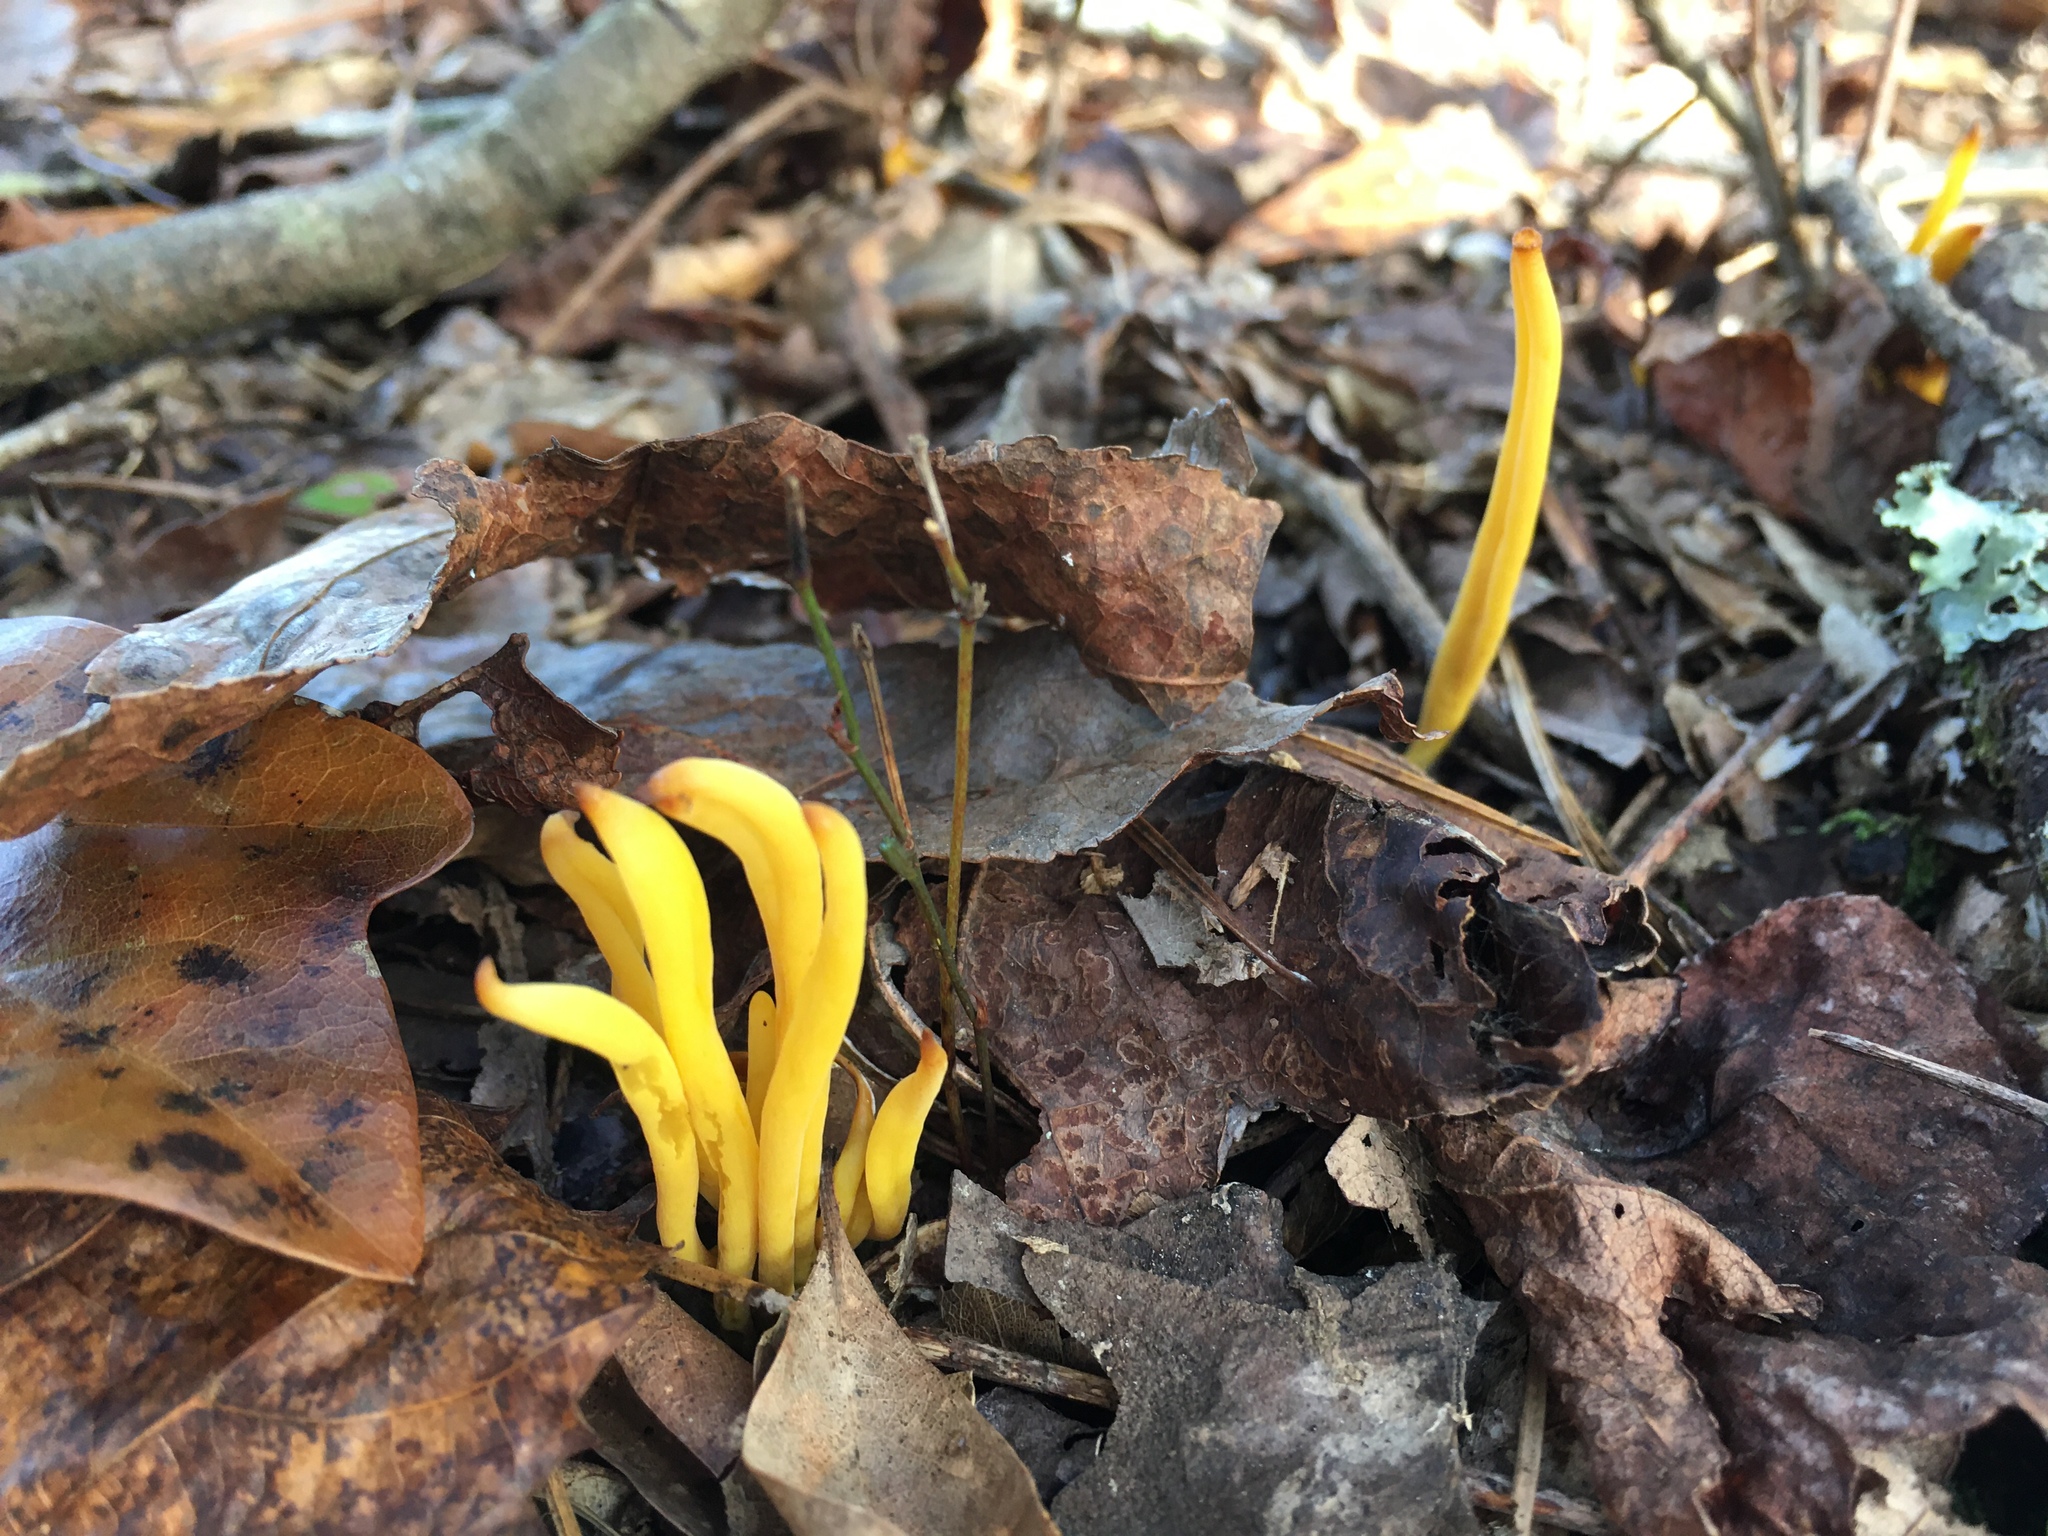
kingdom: Fungi
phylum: Basidiomycota
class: Agaricomycetes
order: Agaricales
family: Clavariaceae
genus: Clavulinopsis
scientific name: Clavulinopsis fusiformis
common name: Golden spindles
